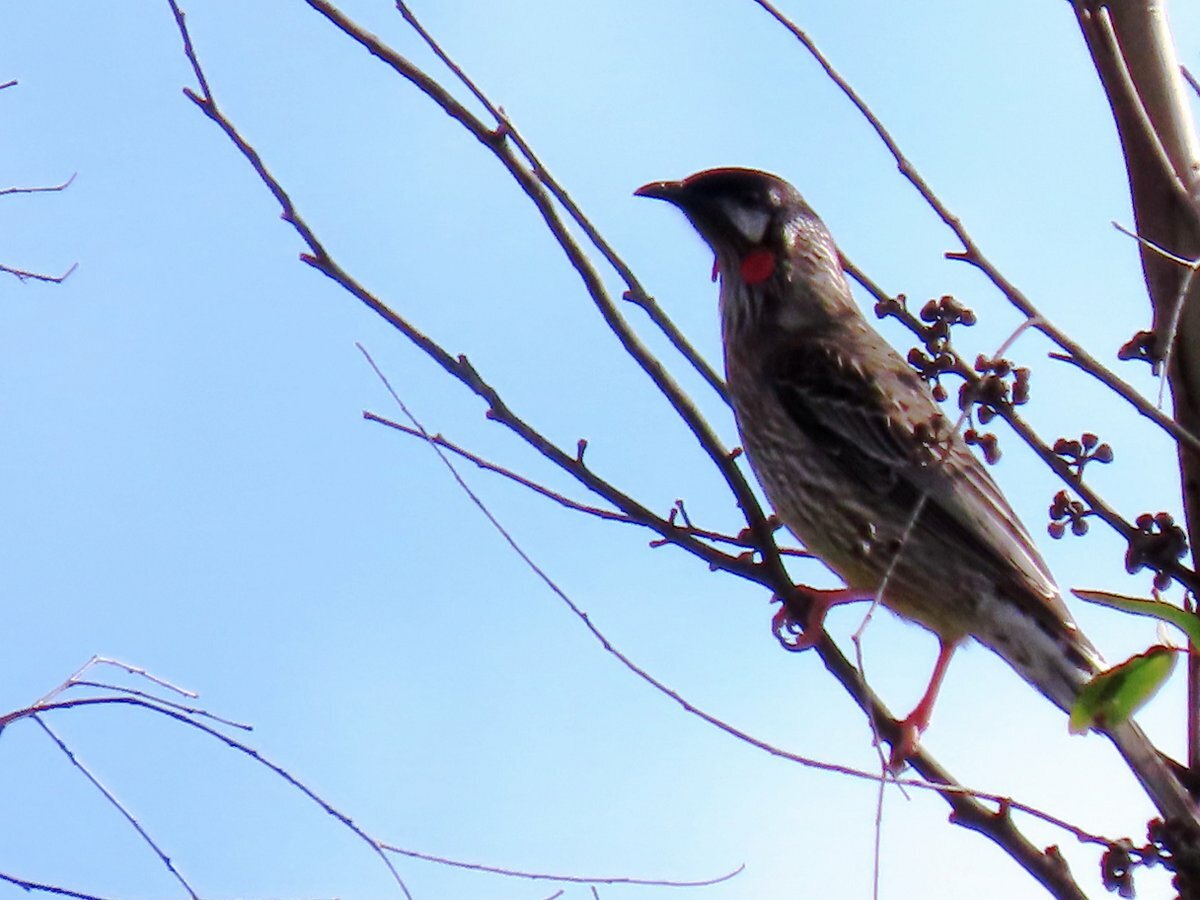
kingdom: Animalia
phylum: Chordata
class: Aves
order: Passeriformes
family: Meliphagidae
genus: Anthochaera
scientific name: Anthochaera carunculata
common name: Red wattlebird
